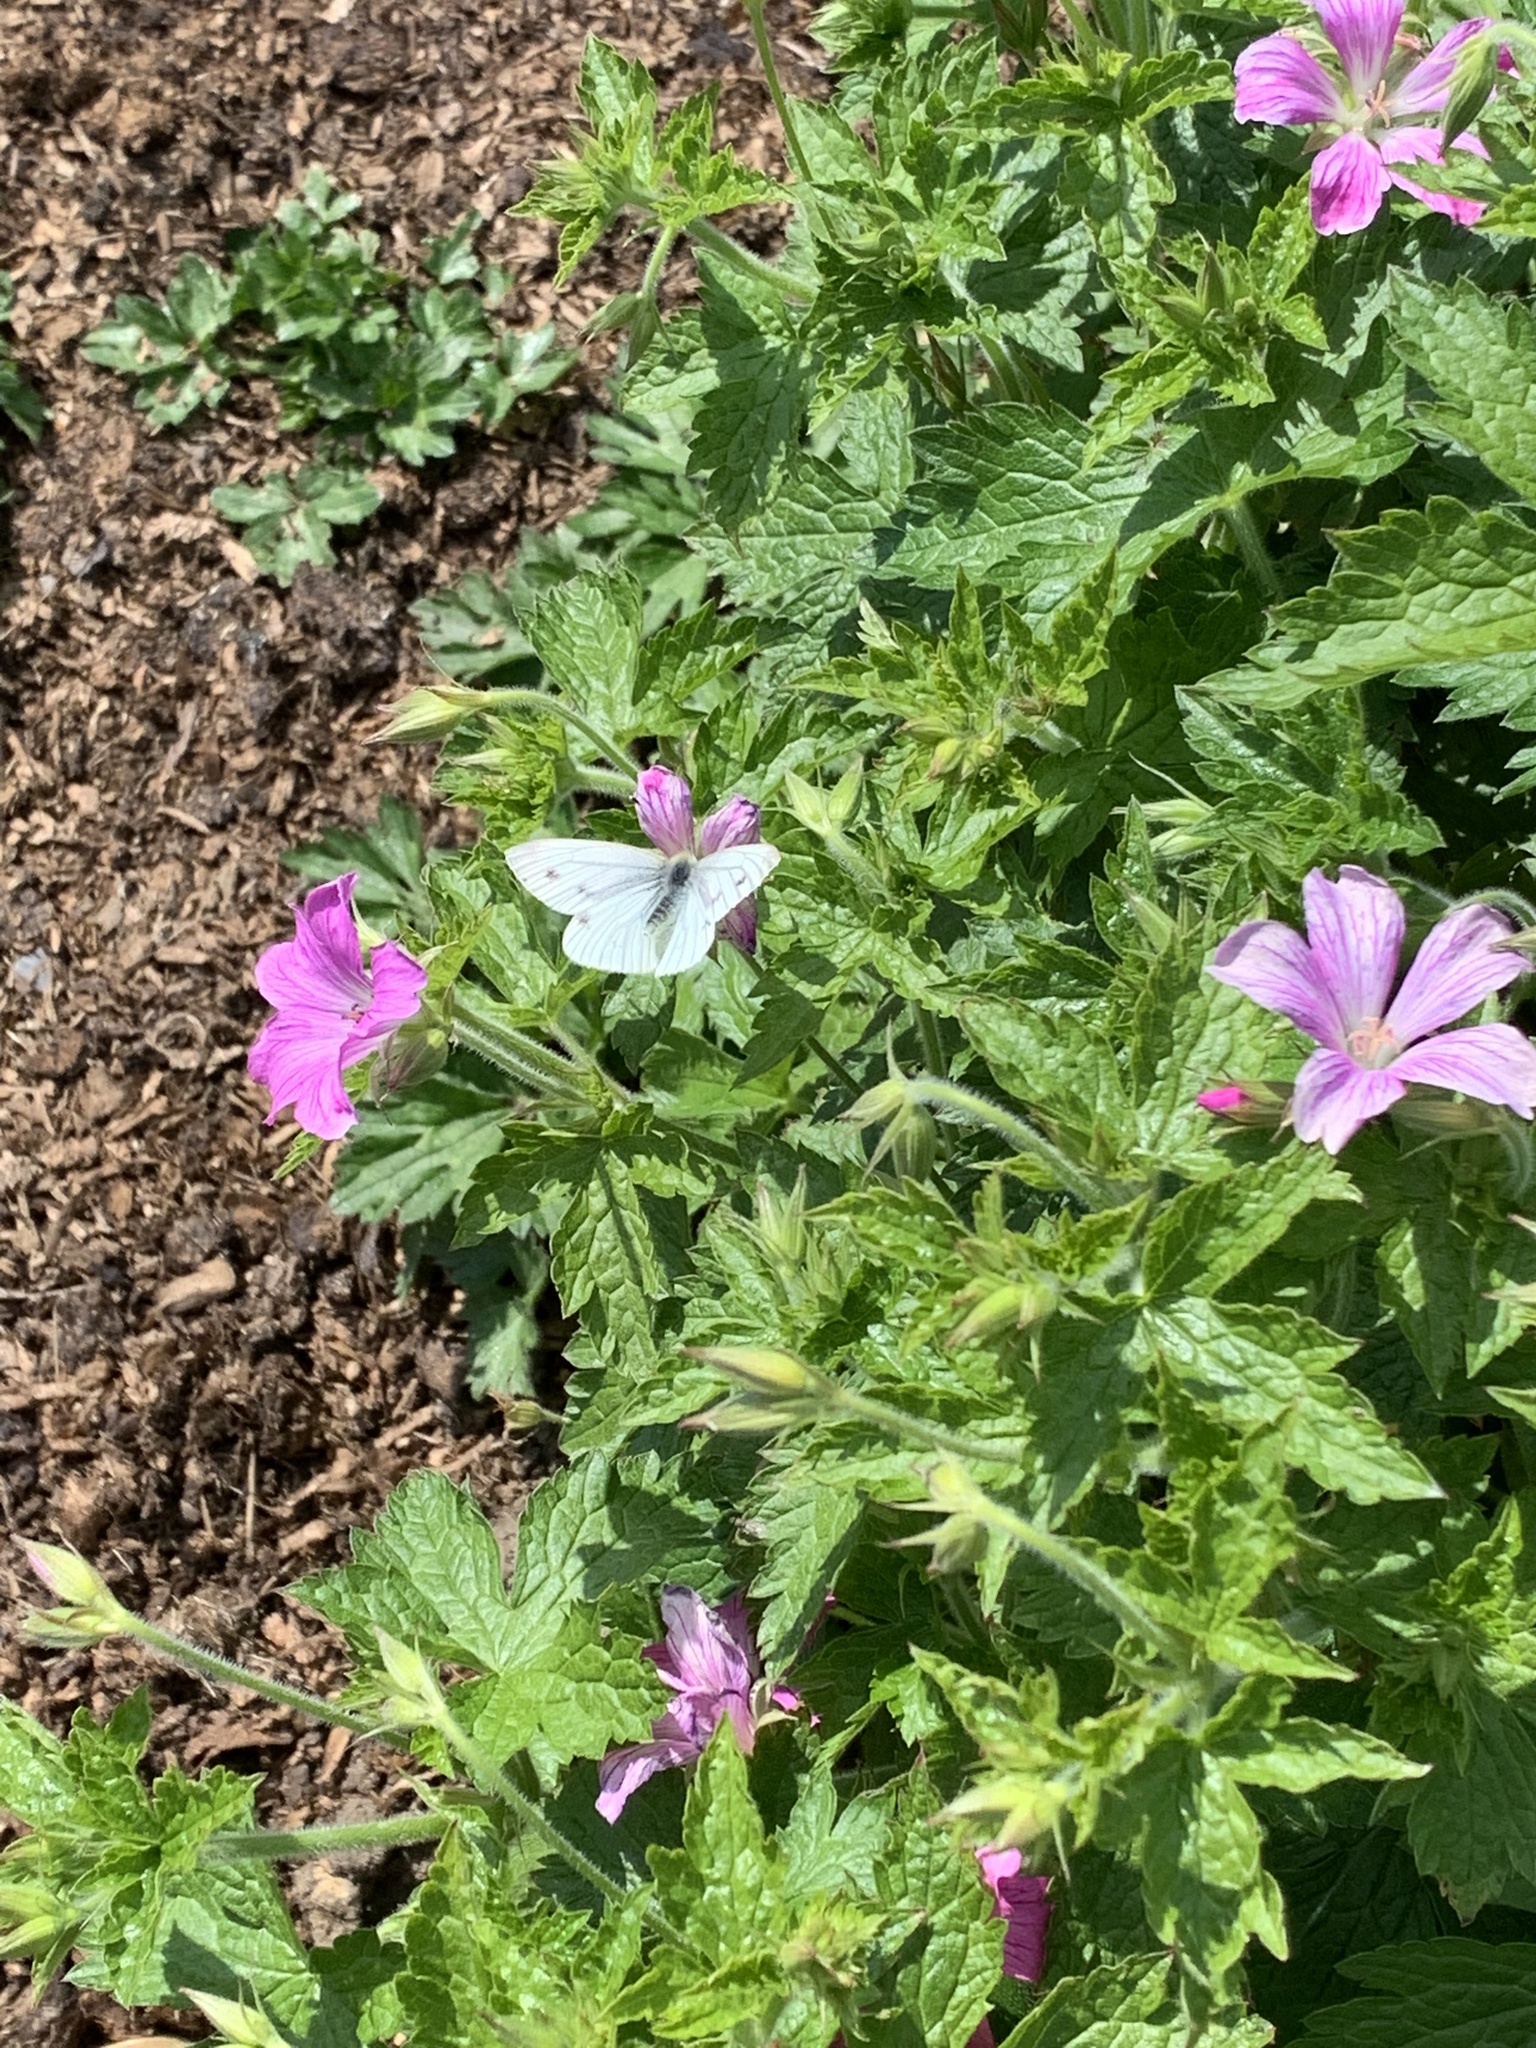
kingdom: Animalia
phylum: Arthropoda
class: Insecta
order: Lepidoptera
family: Pieridae
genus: Pieris
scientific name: Pieris napi
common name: Green-veined white
